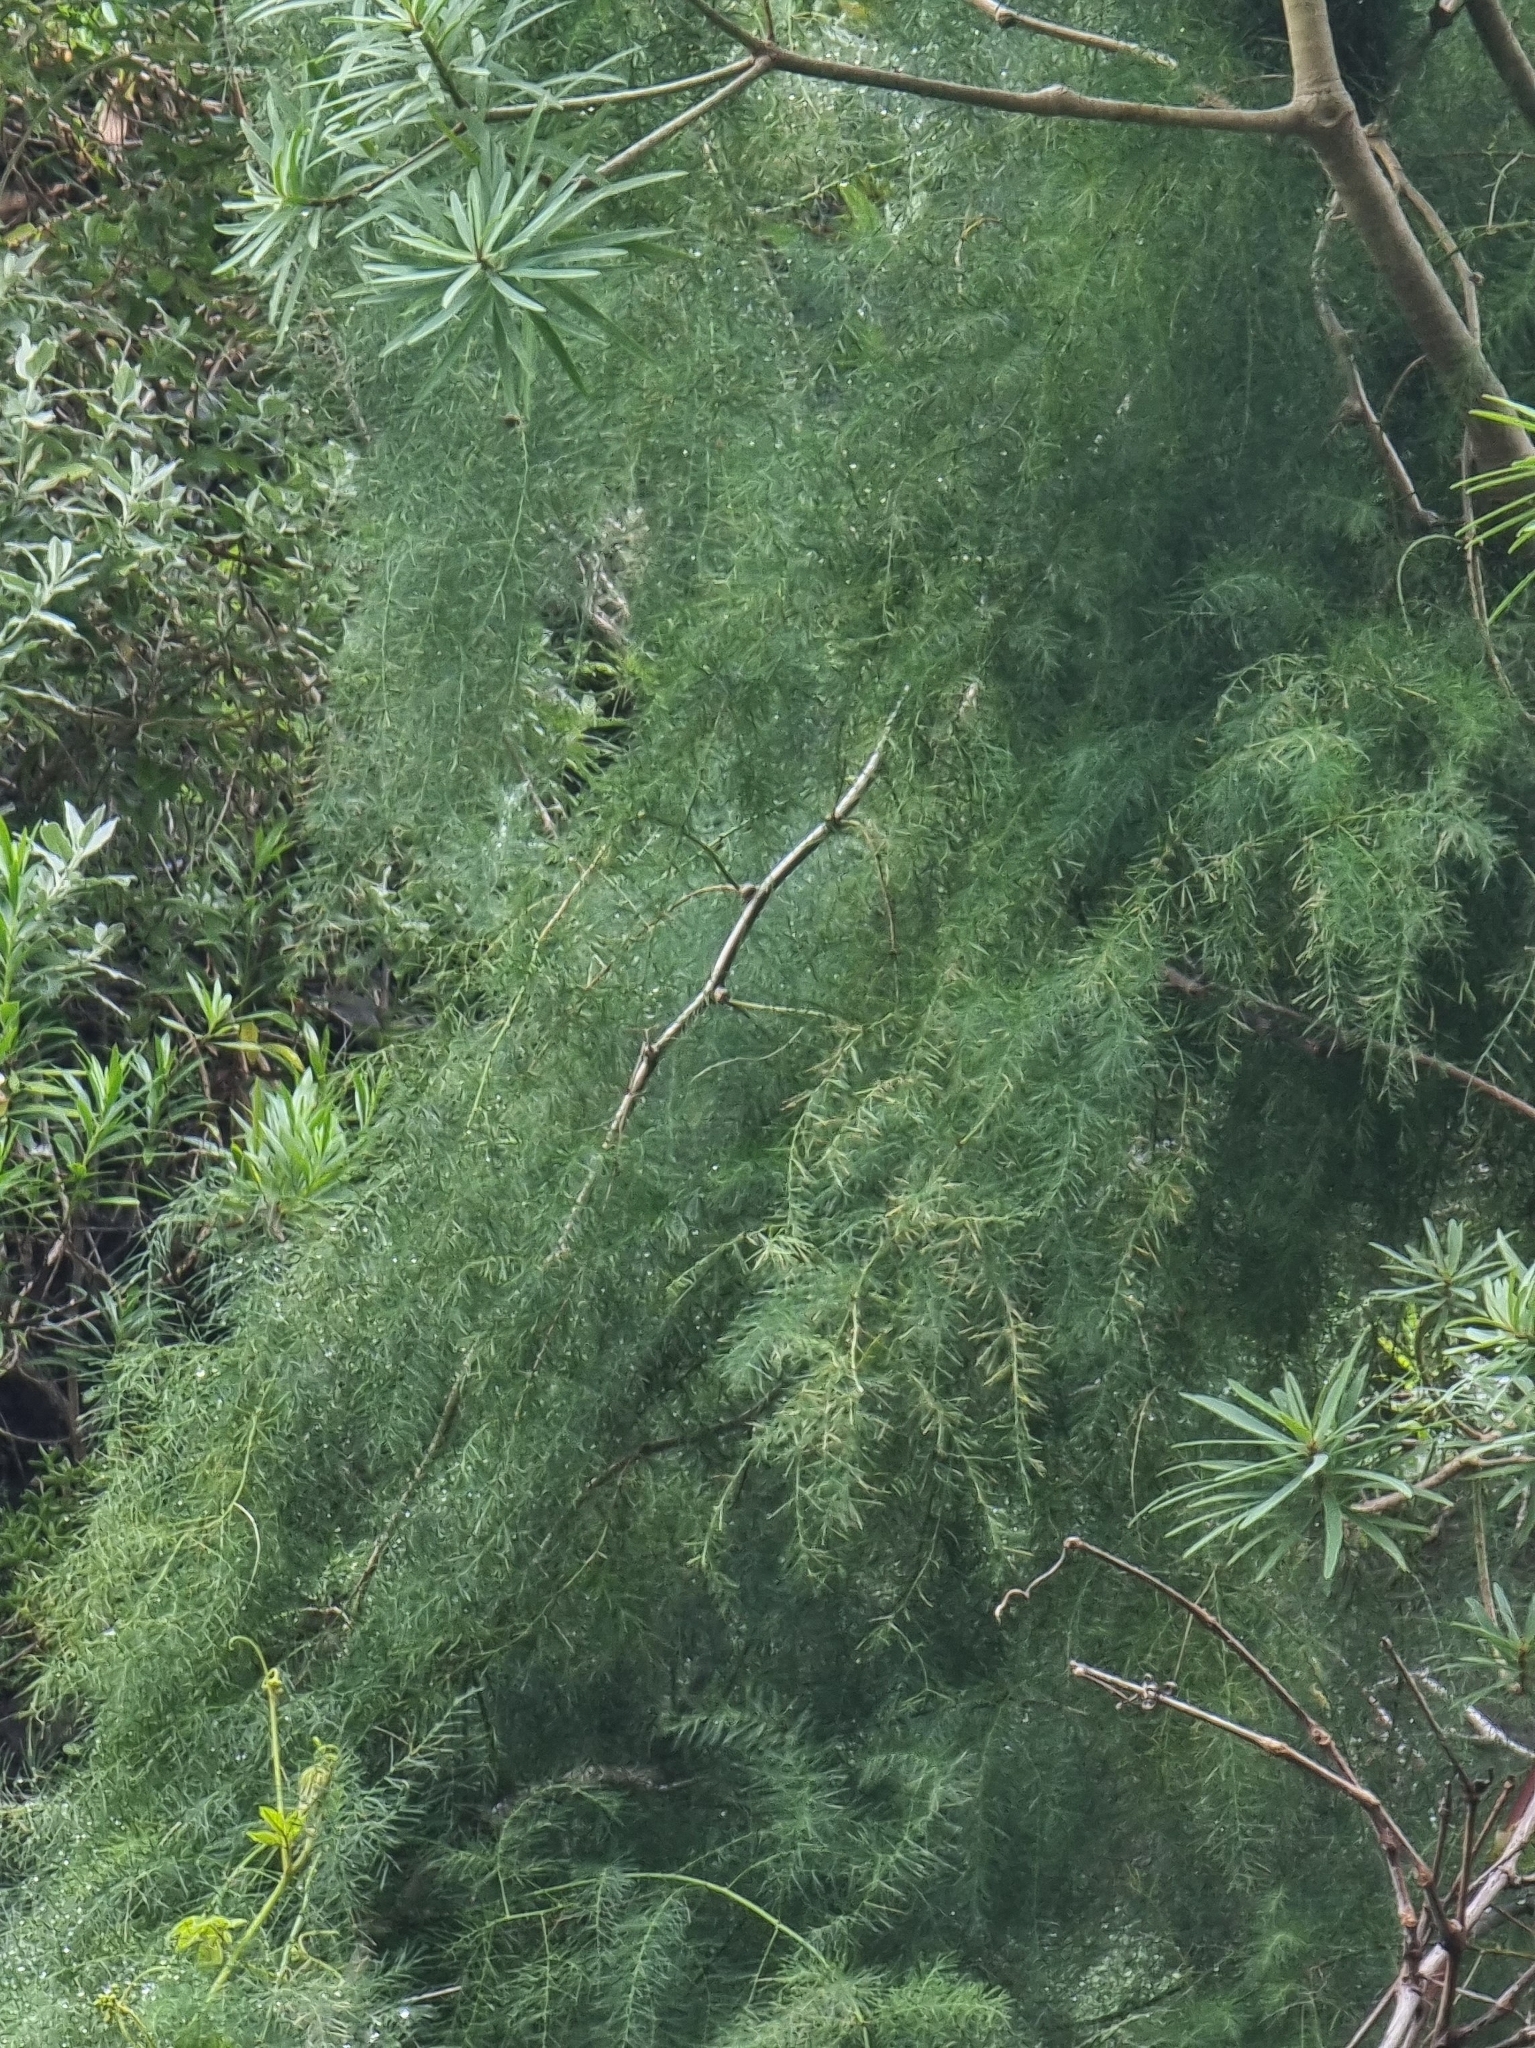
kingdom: Plantae
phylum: Tracheophyta
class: Liliopsida
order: Asparagales
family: Asparagaceae
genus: Asparagus
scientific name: Asparagus umbellatus
